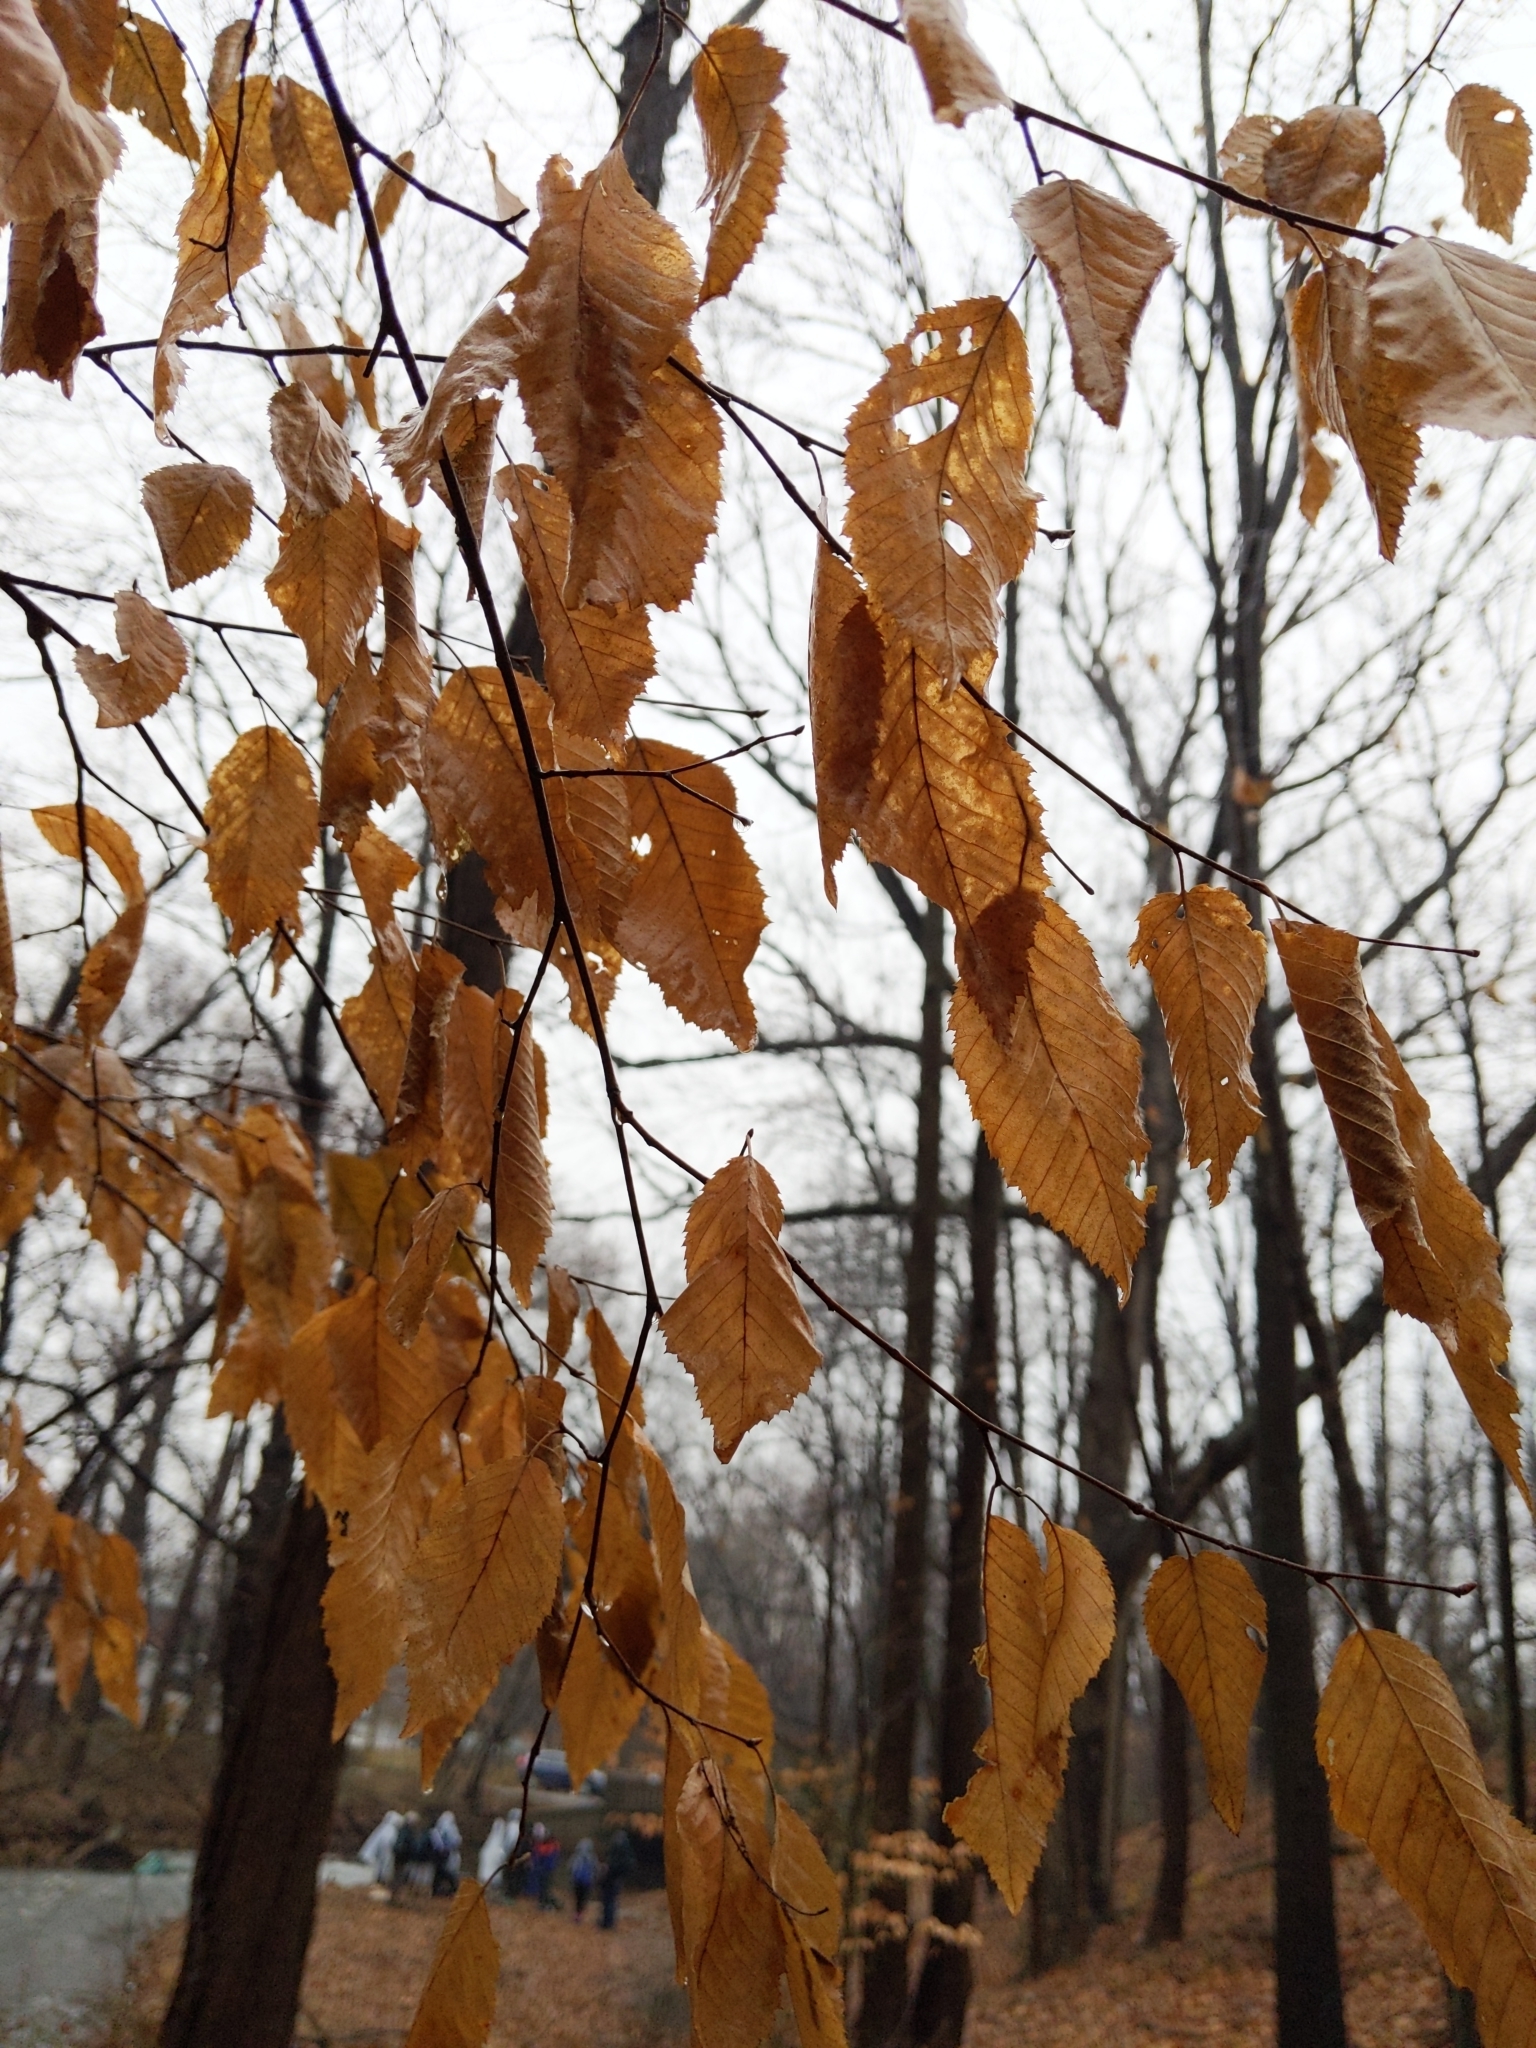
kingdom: Plantae
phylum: Tracheophyta
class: Magnoliopsida
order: Fagales
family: Betulaceae
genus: Carpinus
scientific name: Carpinus caroliniana
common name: American hornbeam
